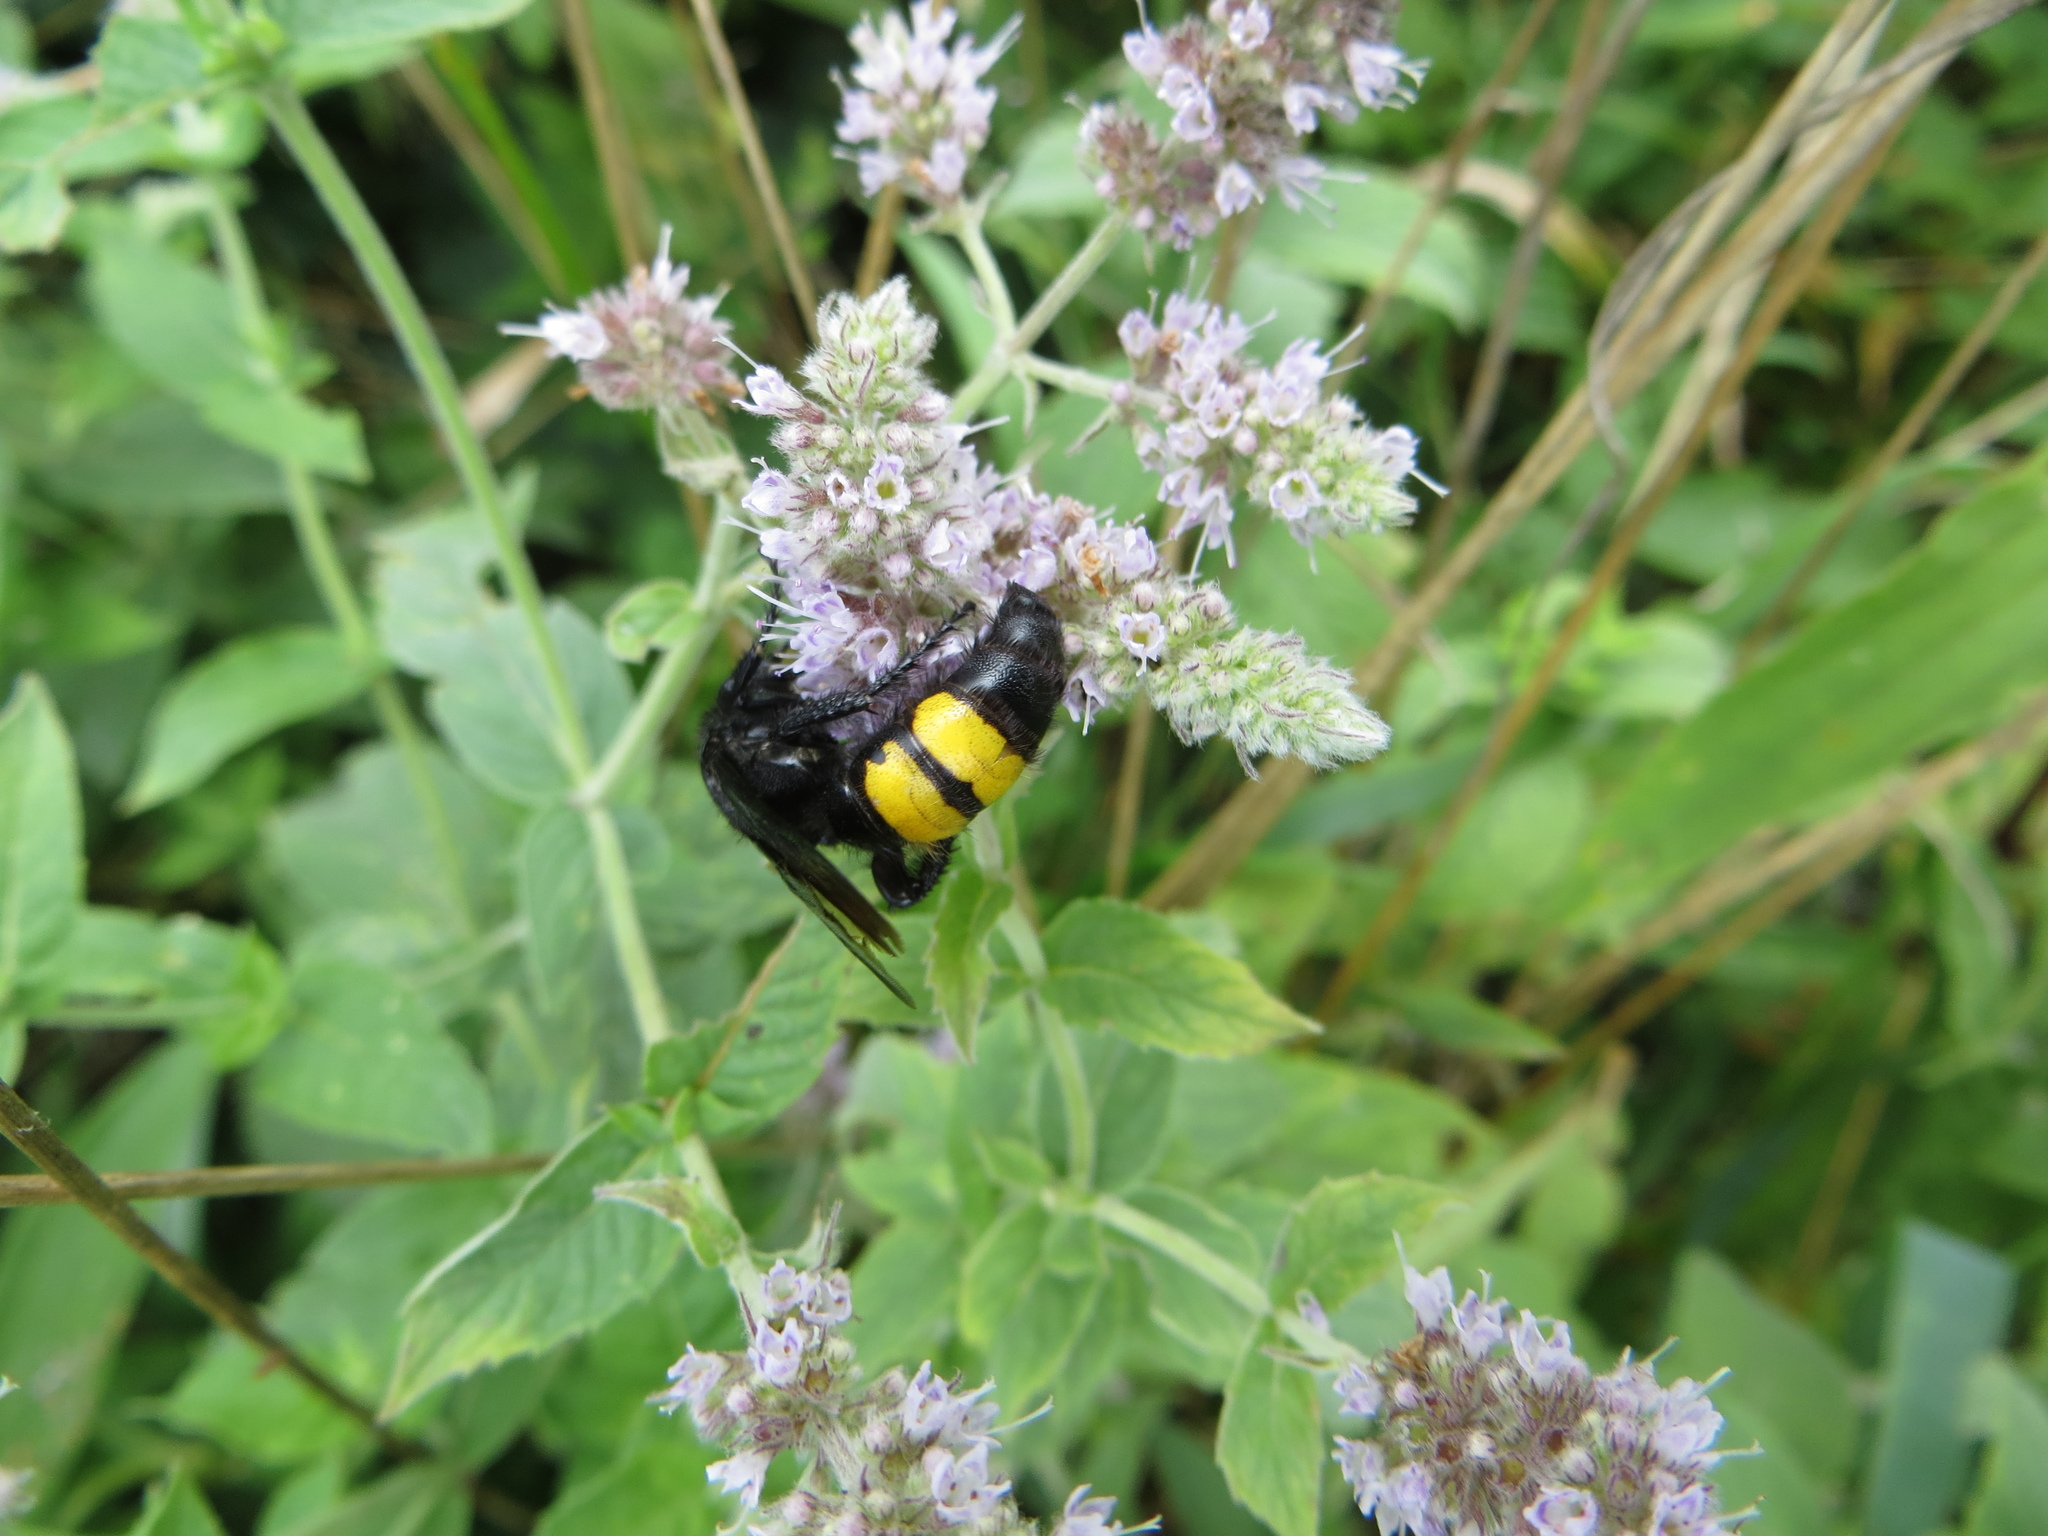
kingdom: Animalia
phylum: Arthropoda
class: Insecta
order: Hymenoptera
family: Scoliidae
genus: Scolia
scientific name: Scolia hirta
